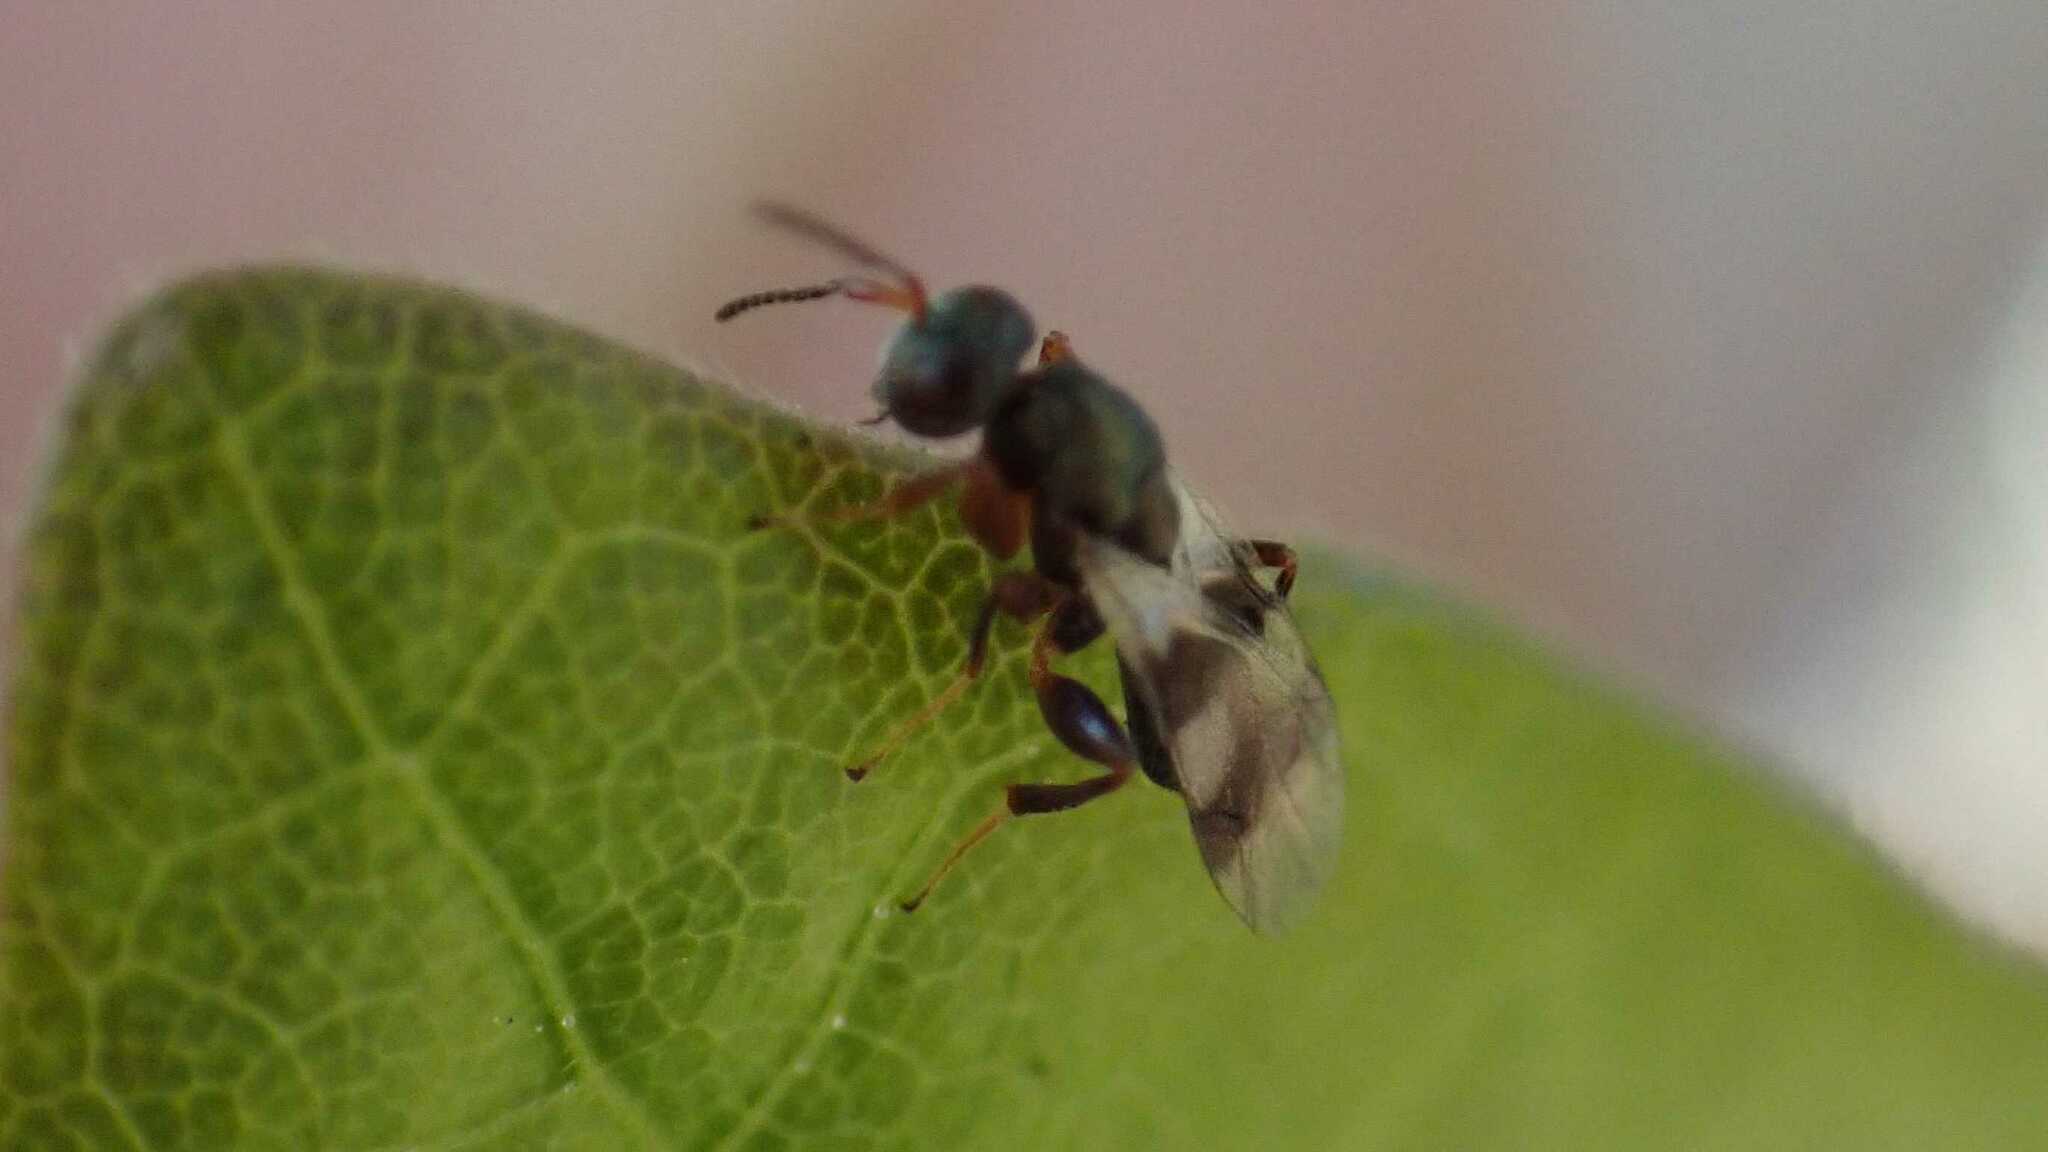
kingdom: Animalia
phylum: Arthropoda
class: Insecta
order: Hymenoptera
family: Pteromalidae
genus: Cheiropachus
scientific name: Cheiropachus quadrum
